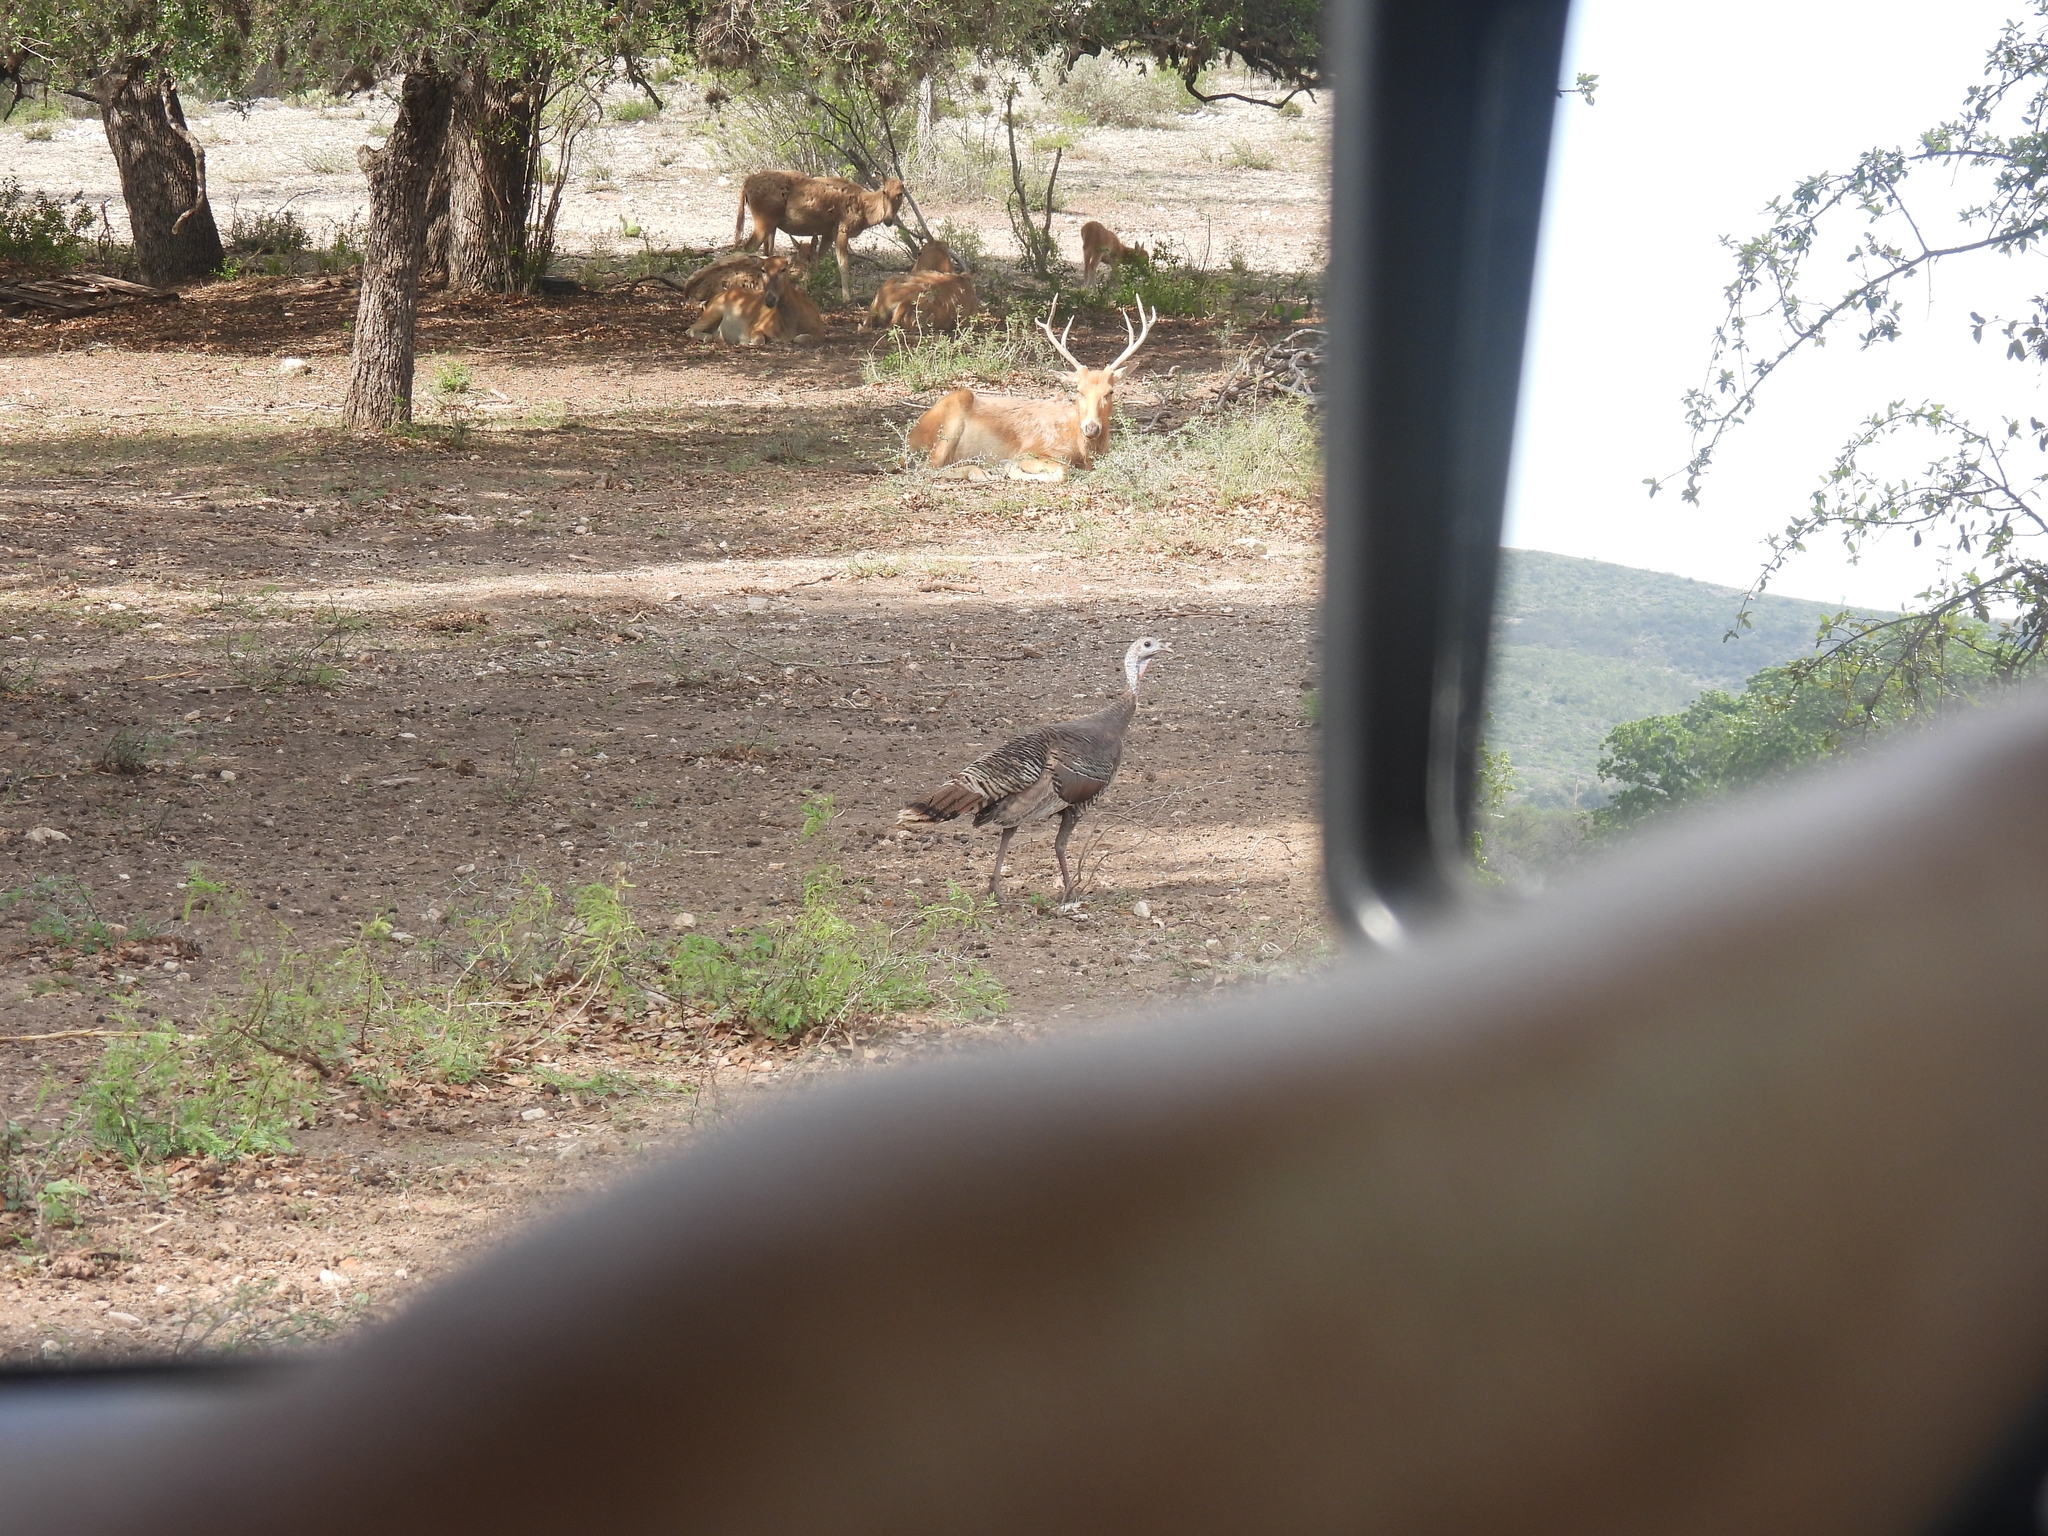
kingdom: Animalia
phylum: Chordata
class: Aves
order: Passeriformes
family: Parulidae
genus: Setophaga
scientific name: Setophaga magnolia
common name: Magnolia warbler
